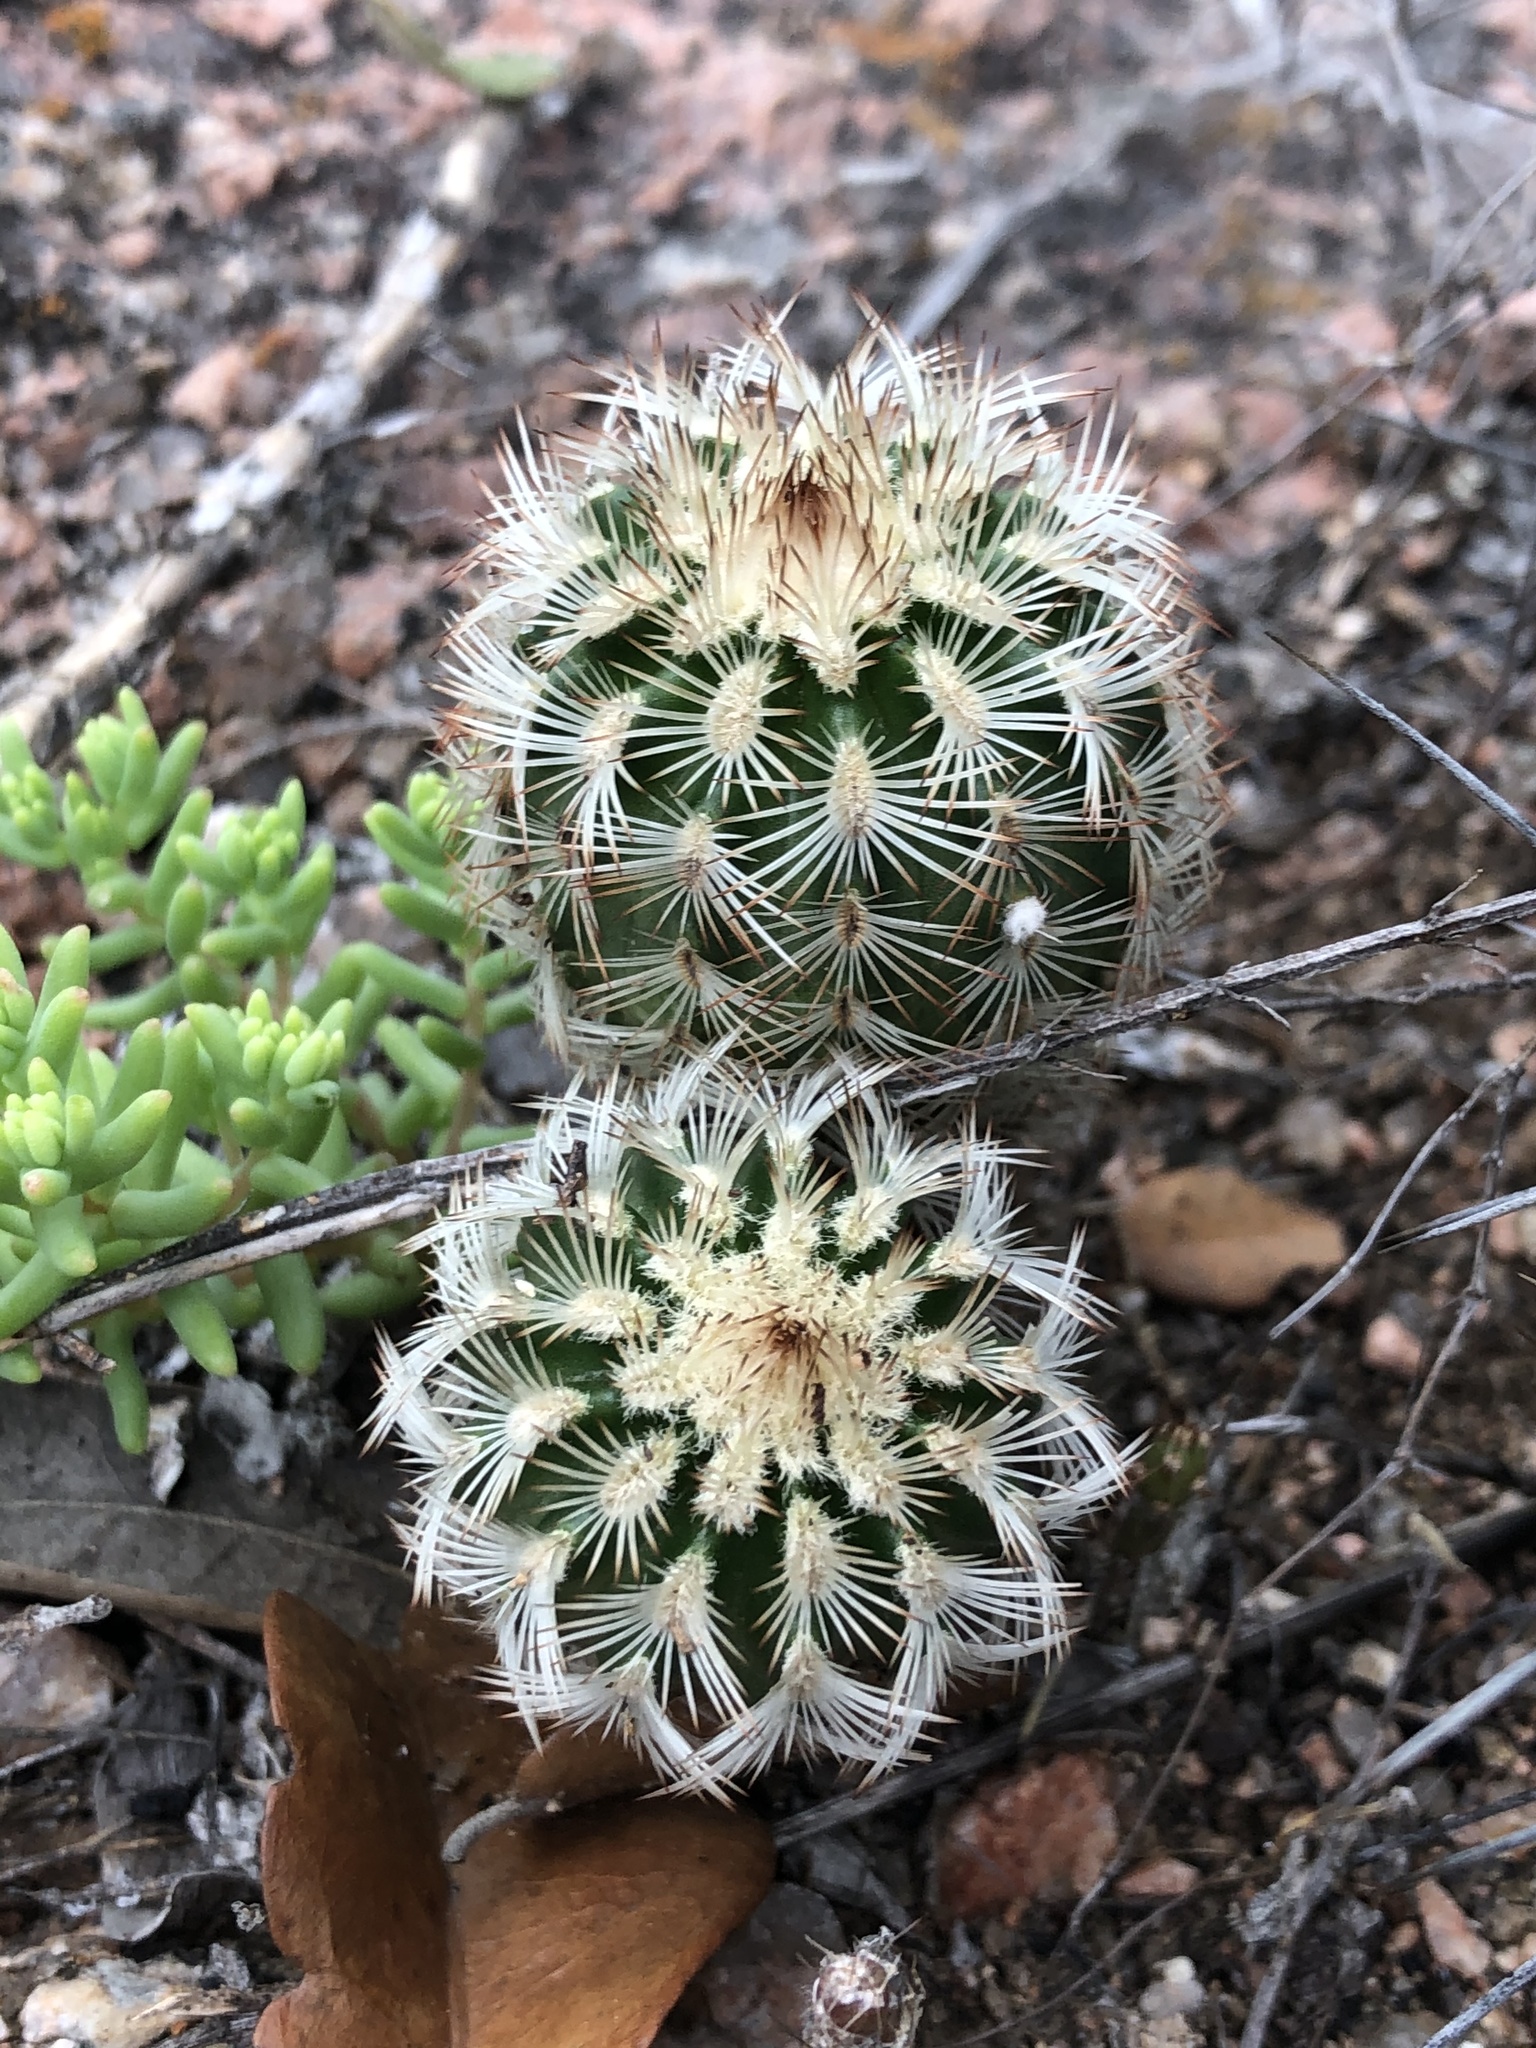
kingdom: Plantae
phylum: Tracheophyta
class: Magnoliopsida
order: Caryophyllales
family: Cactaceae
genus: Echinocereus
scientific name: Echinocereus reichenbachii
